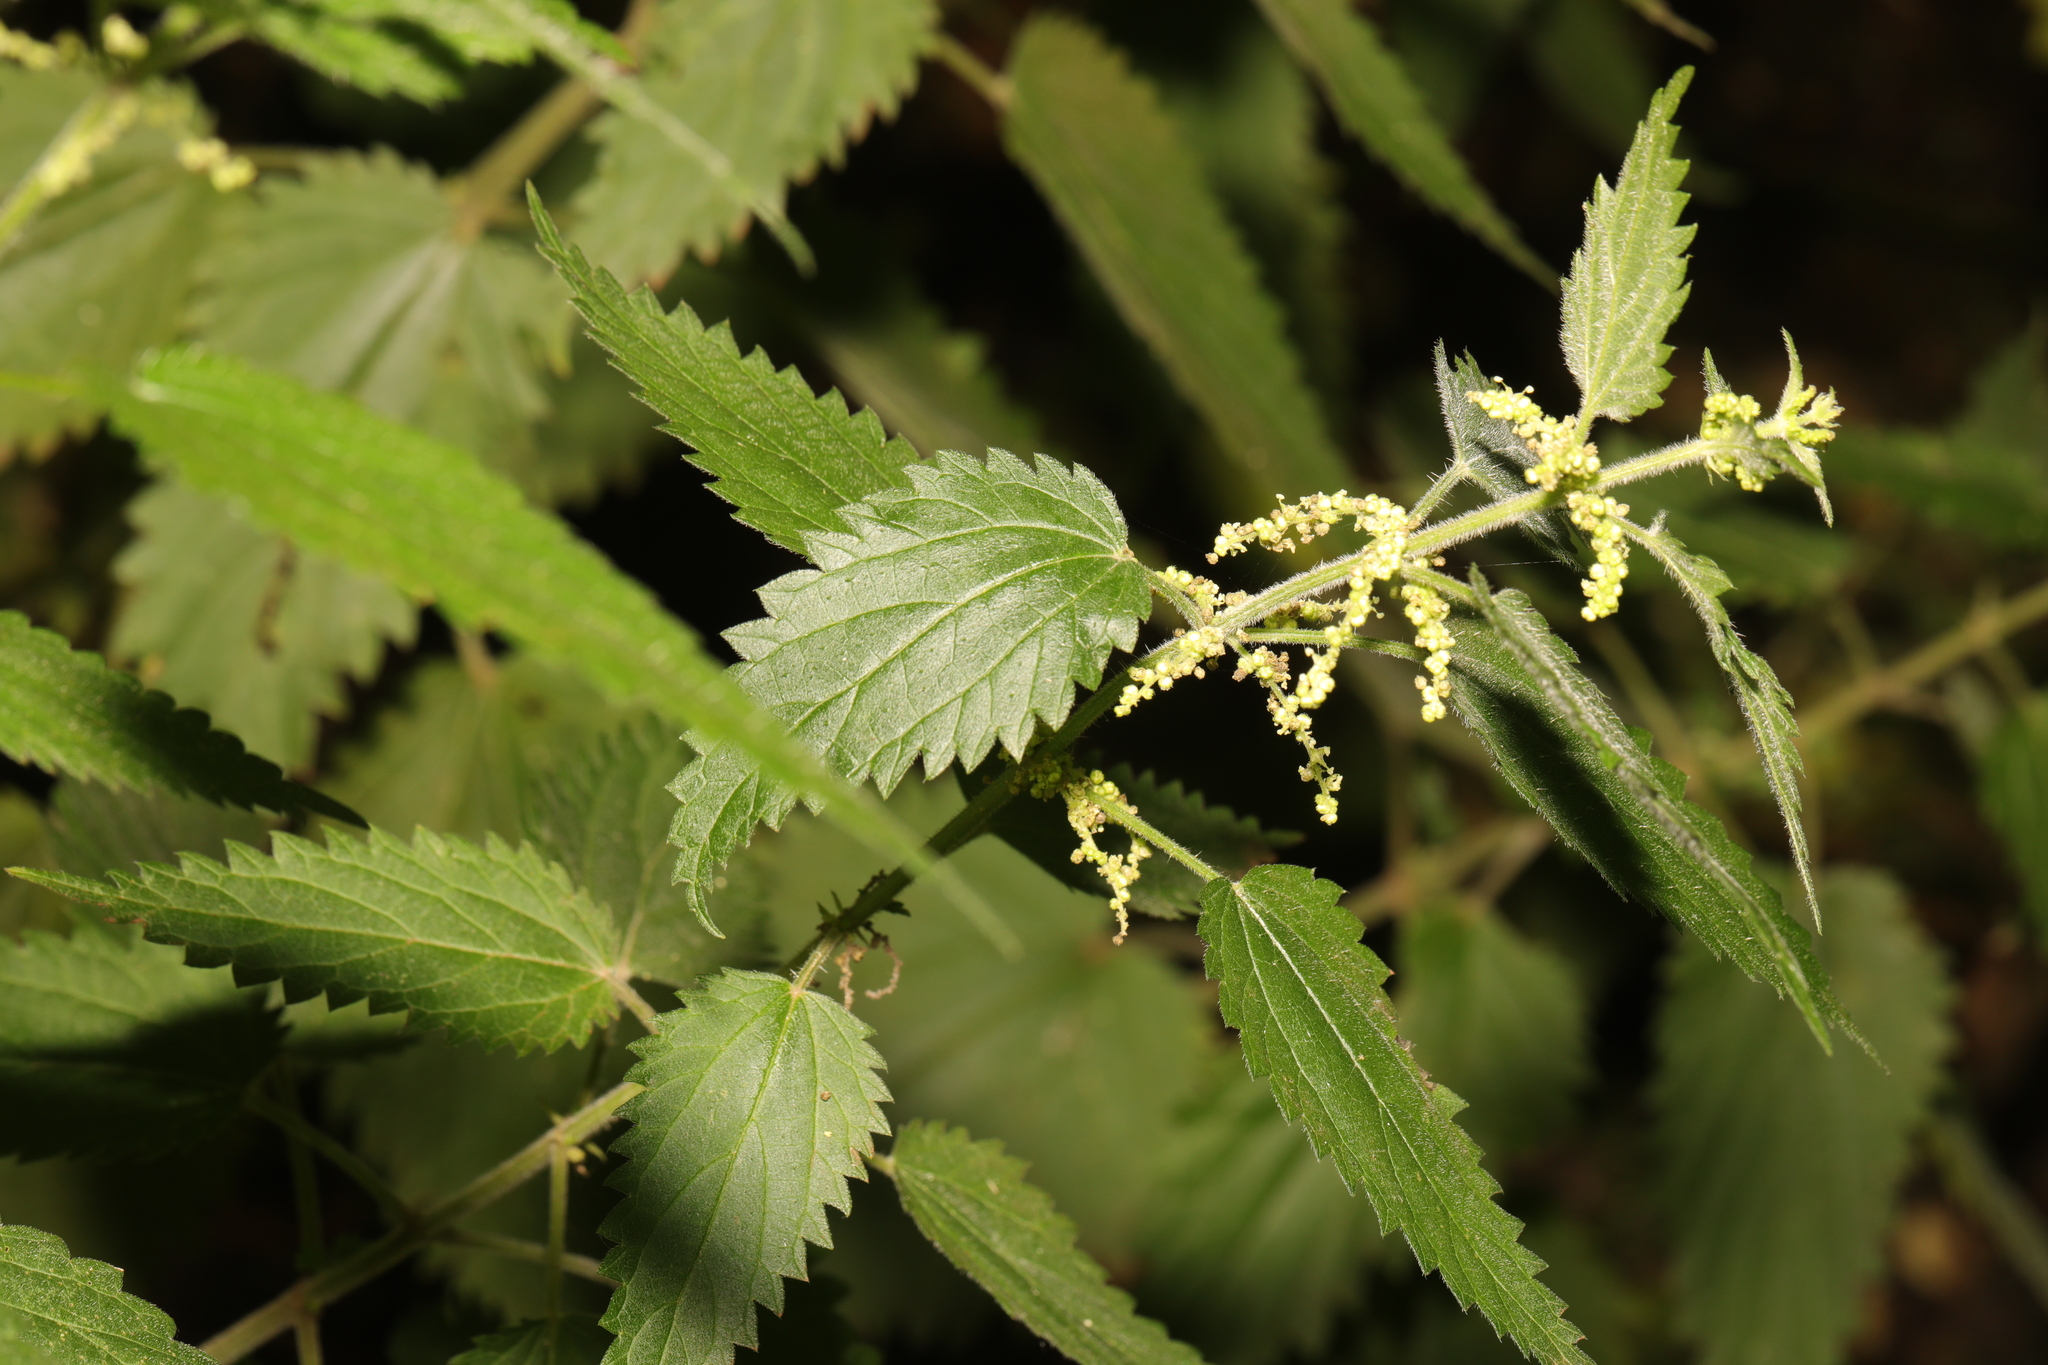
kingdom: Plantae
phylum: Tracheophyta
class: Magnoliopsida
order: Rosales
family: Urticaceae
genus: Urtica
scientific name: Urtica dioica
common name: Common nettle
